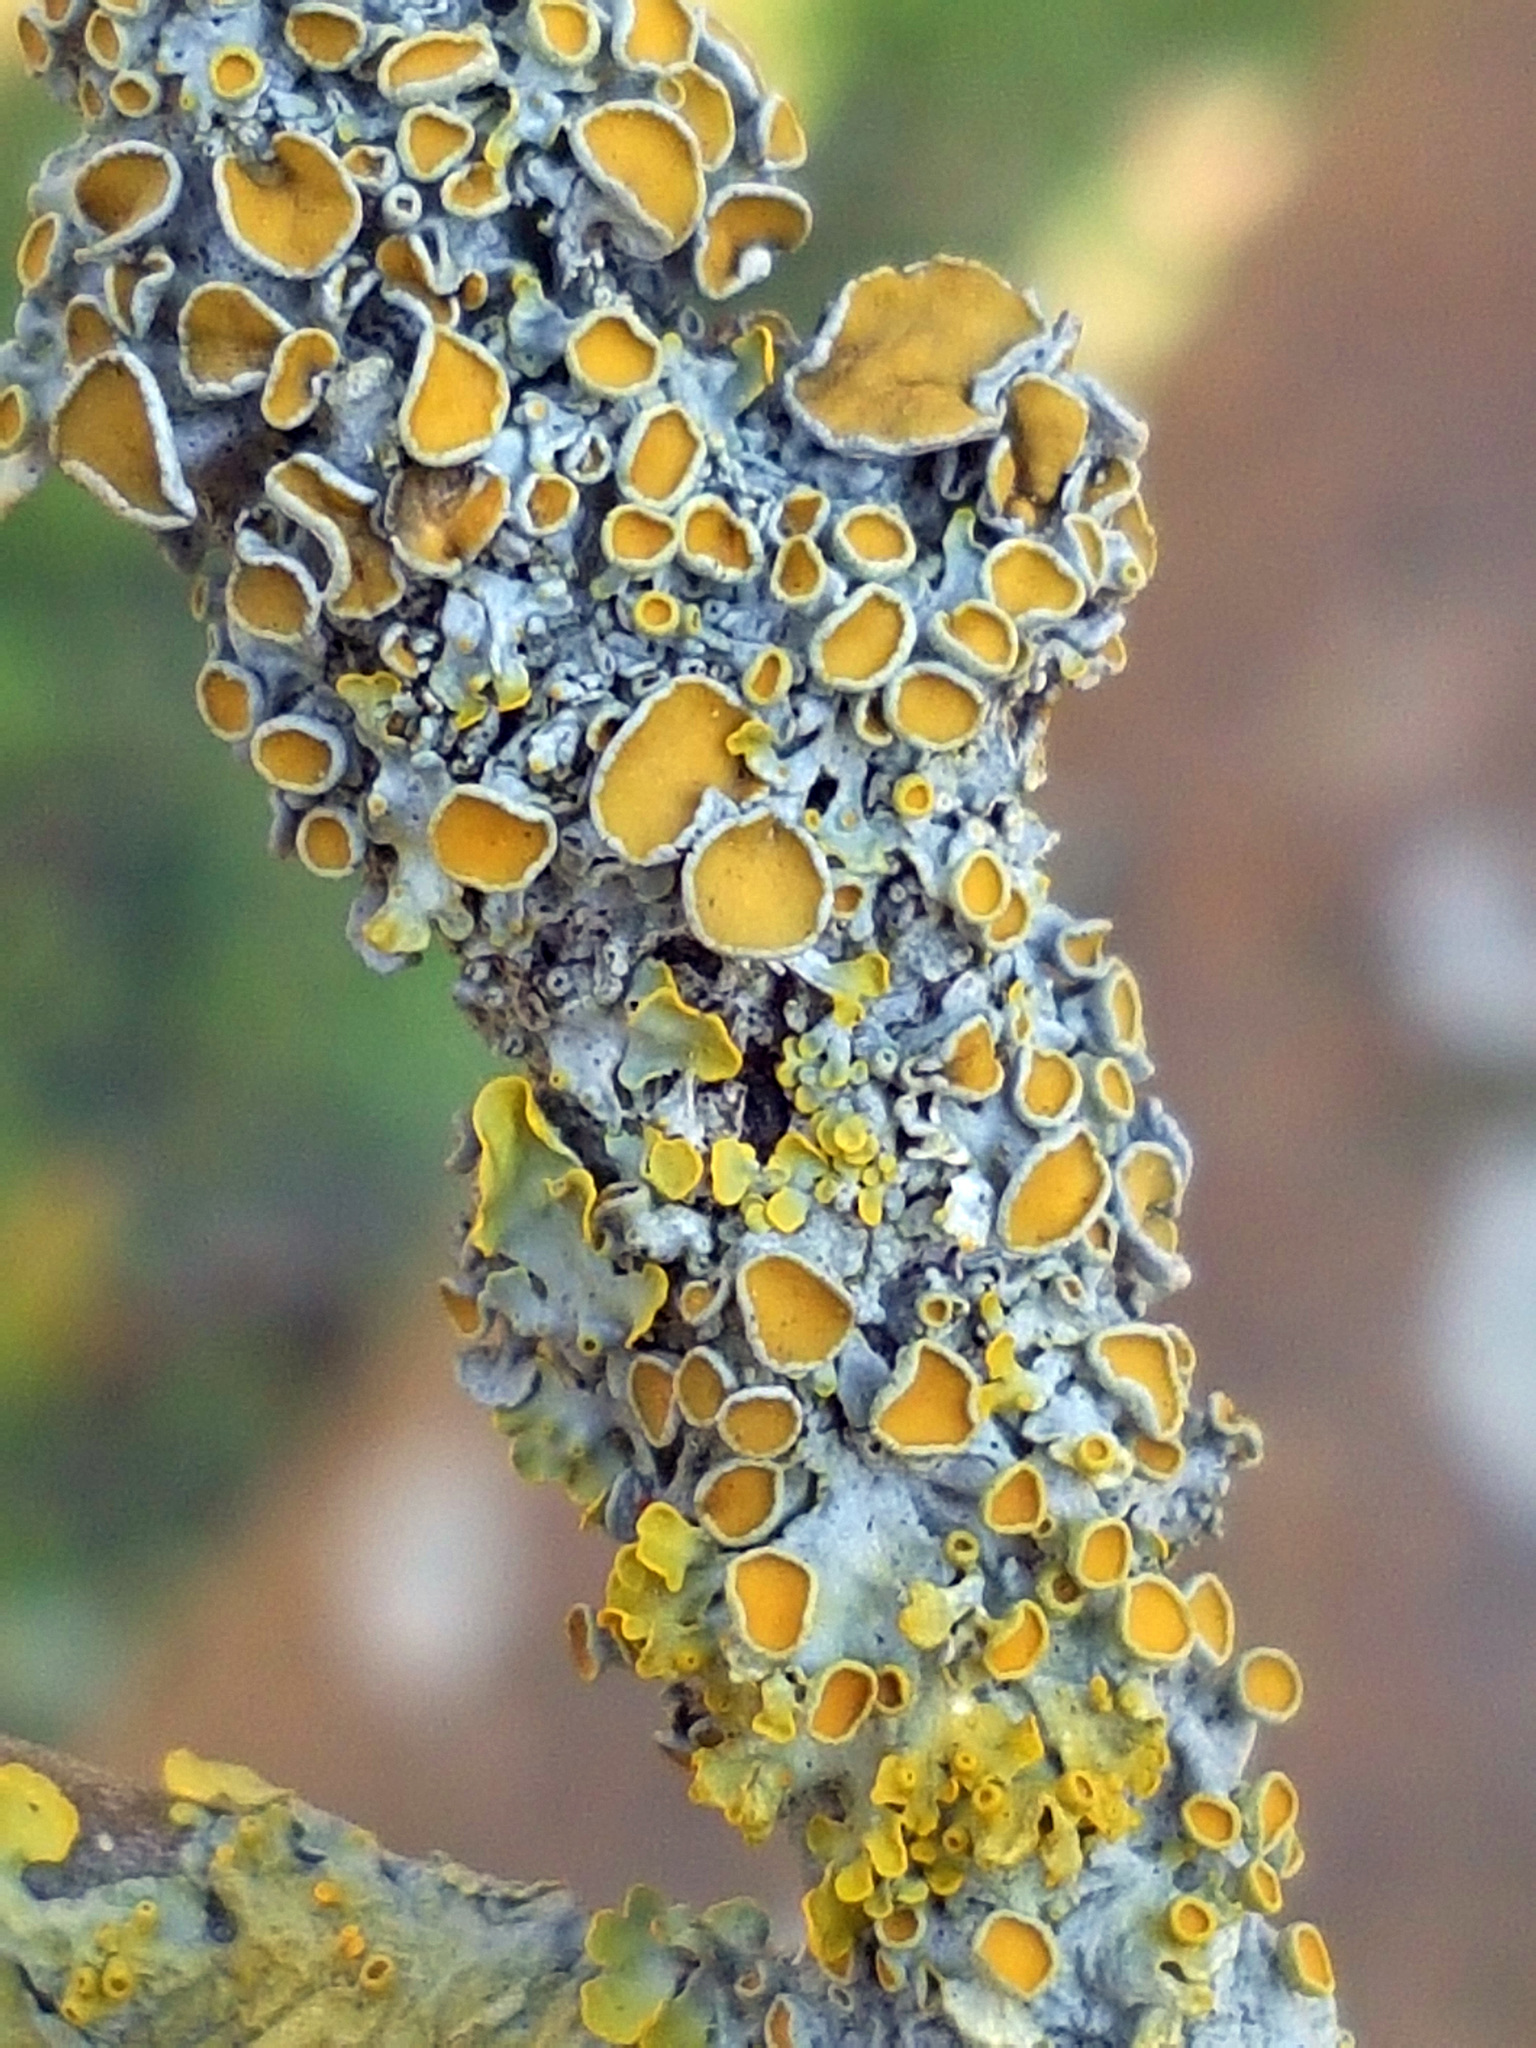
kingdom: Fungi
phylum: Ascomycota
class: Lecanoromycetes
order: Teloschistales
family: Teloschistaceae
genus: Xanthoria
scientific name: Xanthoria parietina
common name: Common orange lichen
